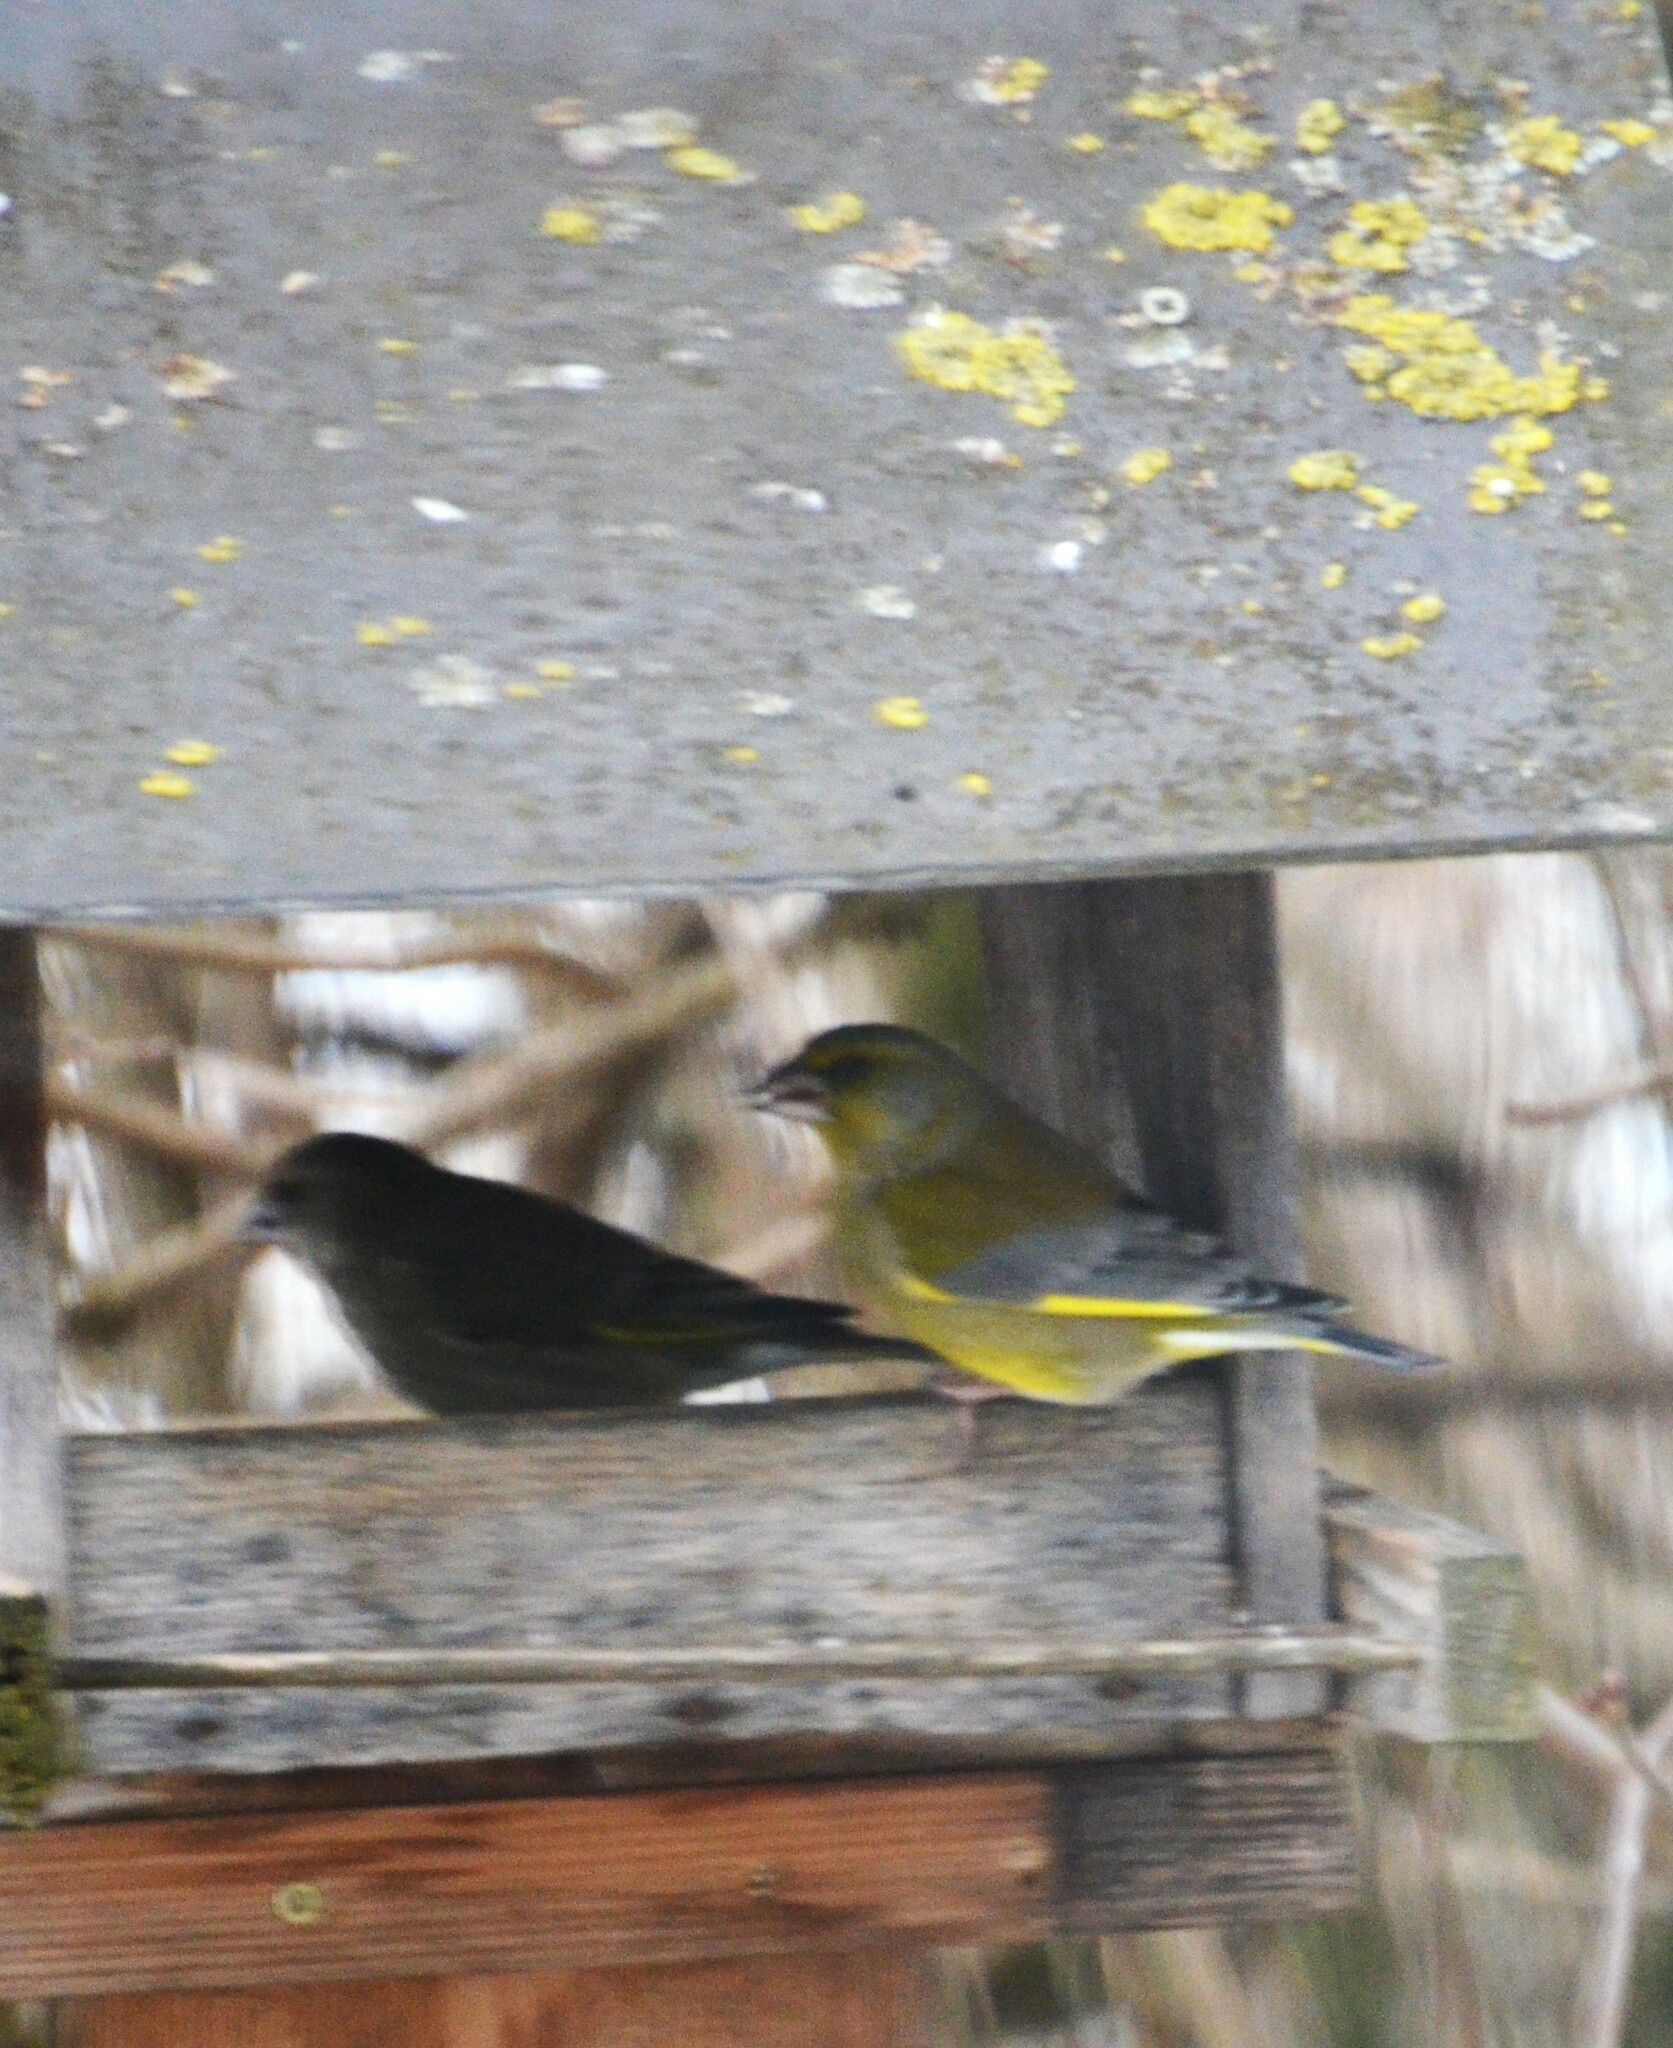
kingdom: Plantae
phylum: Tracheophyta
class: Liliopsida
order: Poales
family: Poaceae
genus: Chloris
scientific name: Chloris chloris
